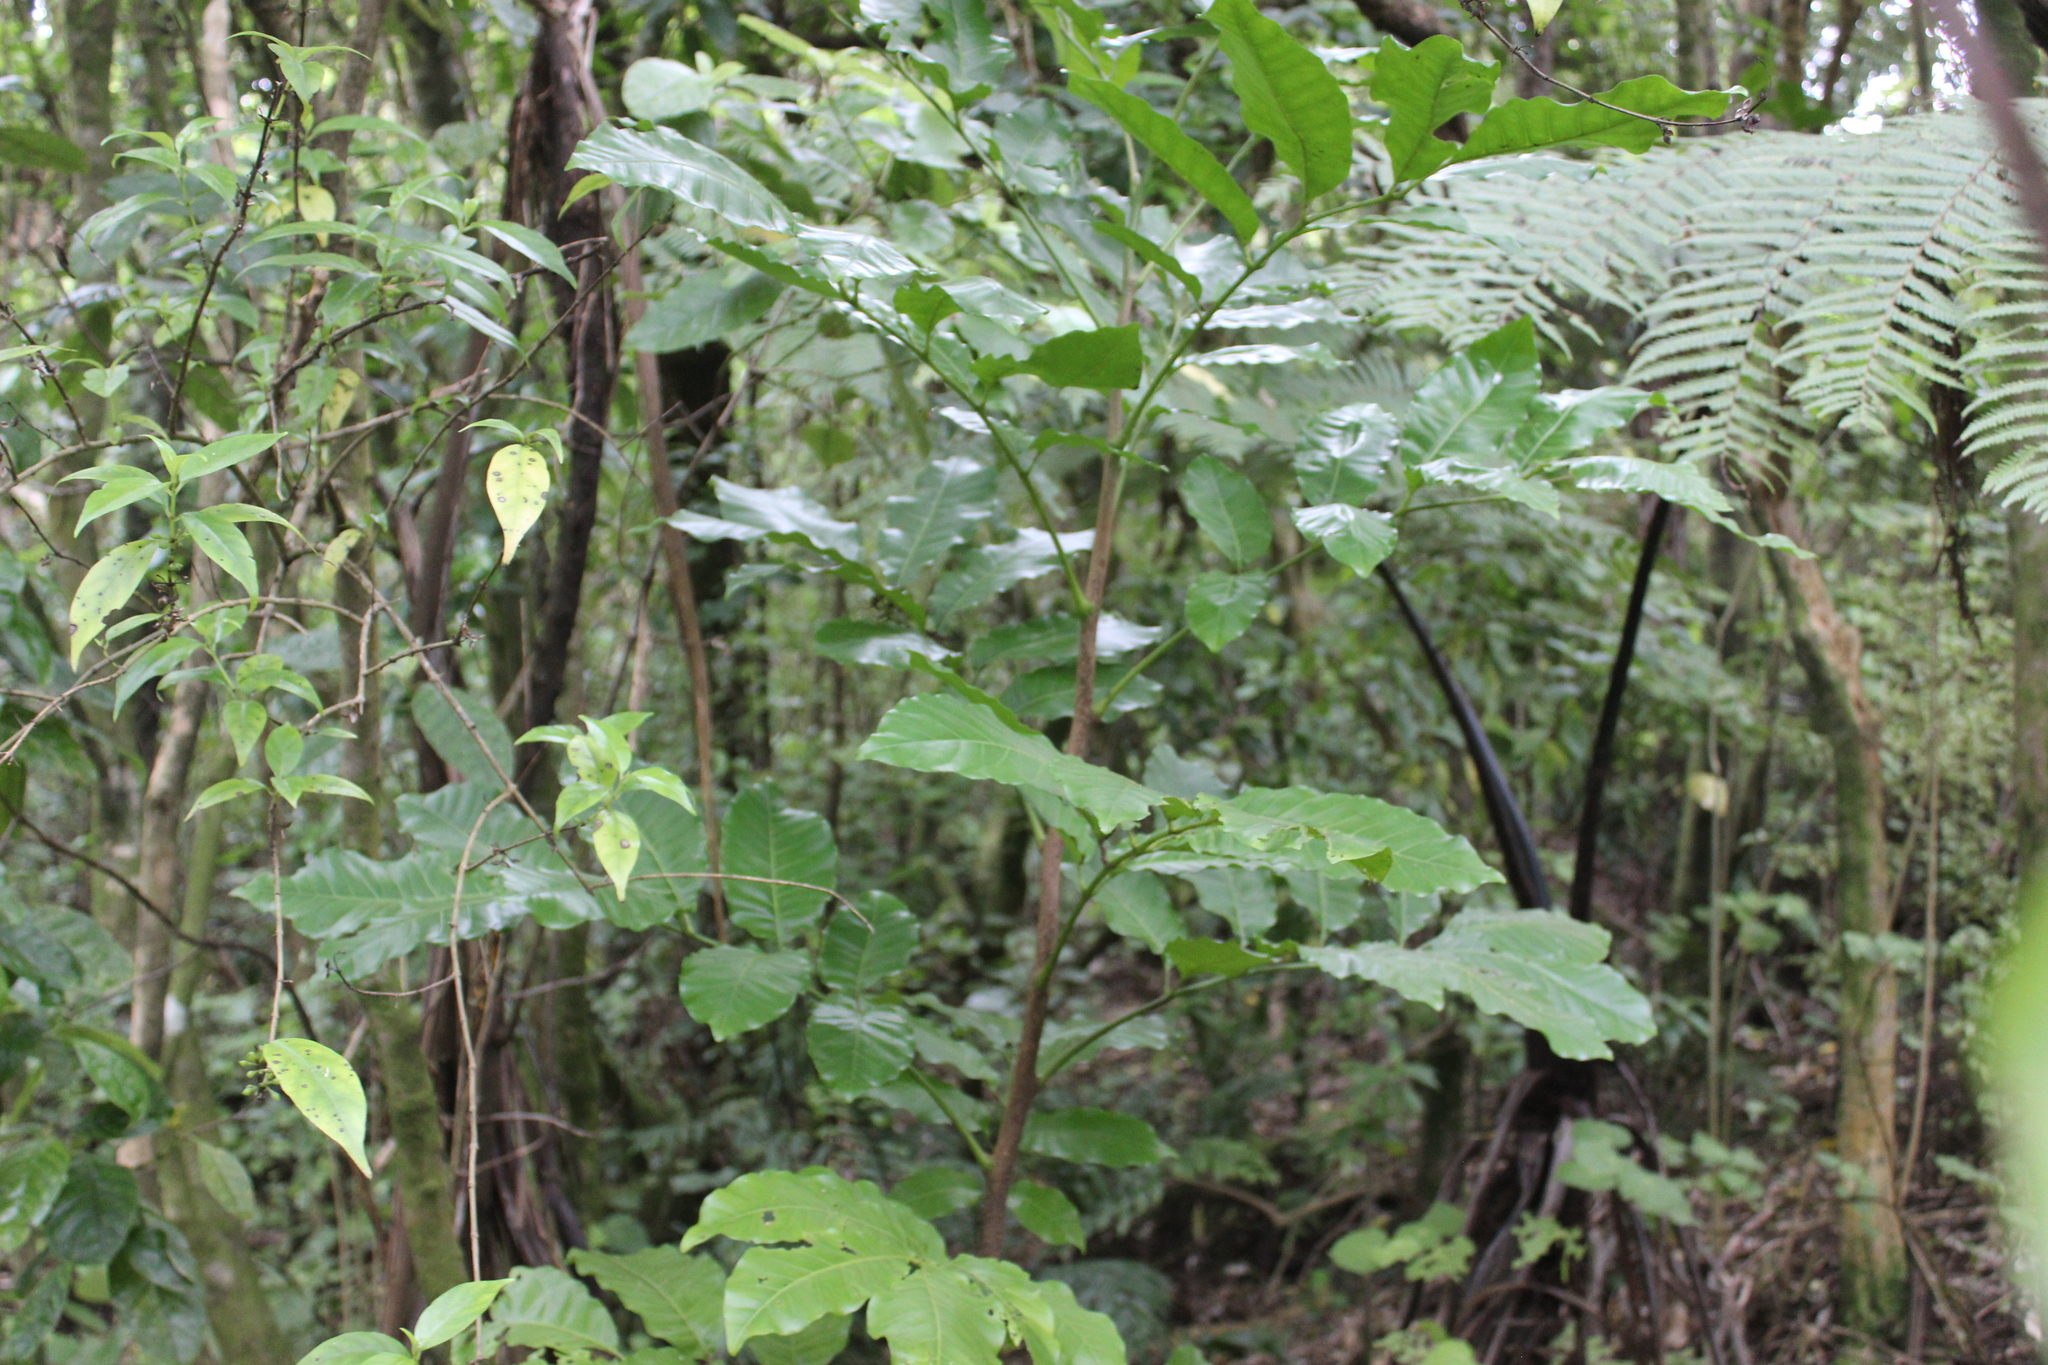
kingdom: Plantae
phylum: Tracheophyta
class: Magnoliopsida
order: Sapindales
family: Meliaceae
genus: Didymocheton
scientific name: Didymocheton spectabilis
